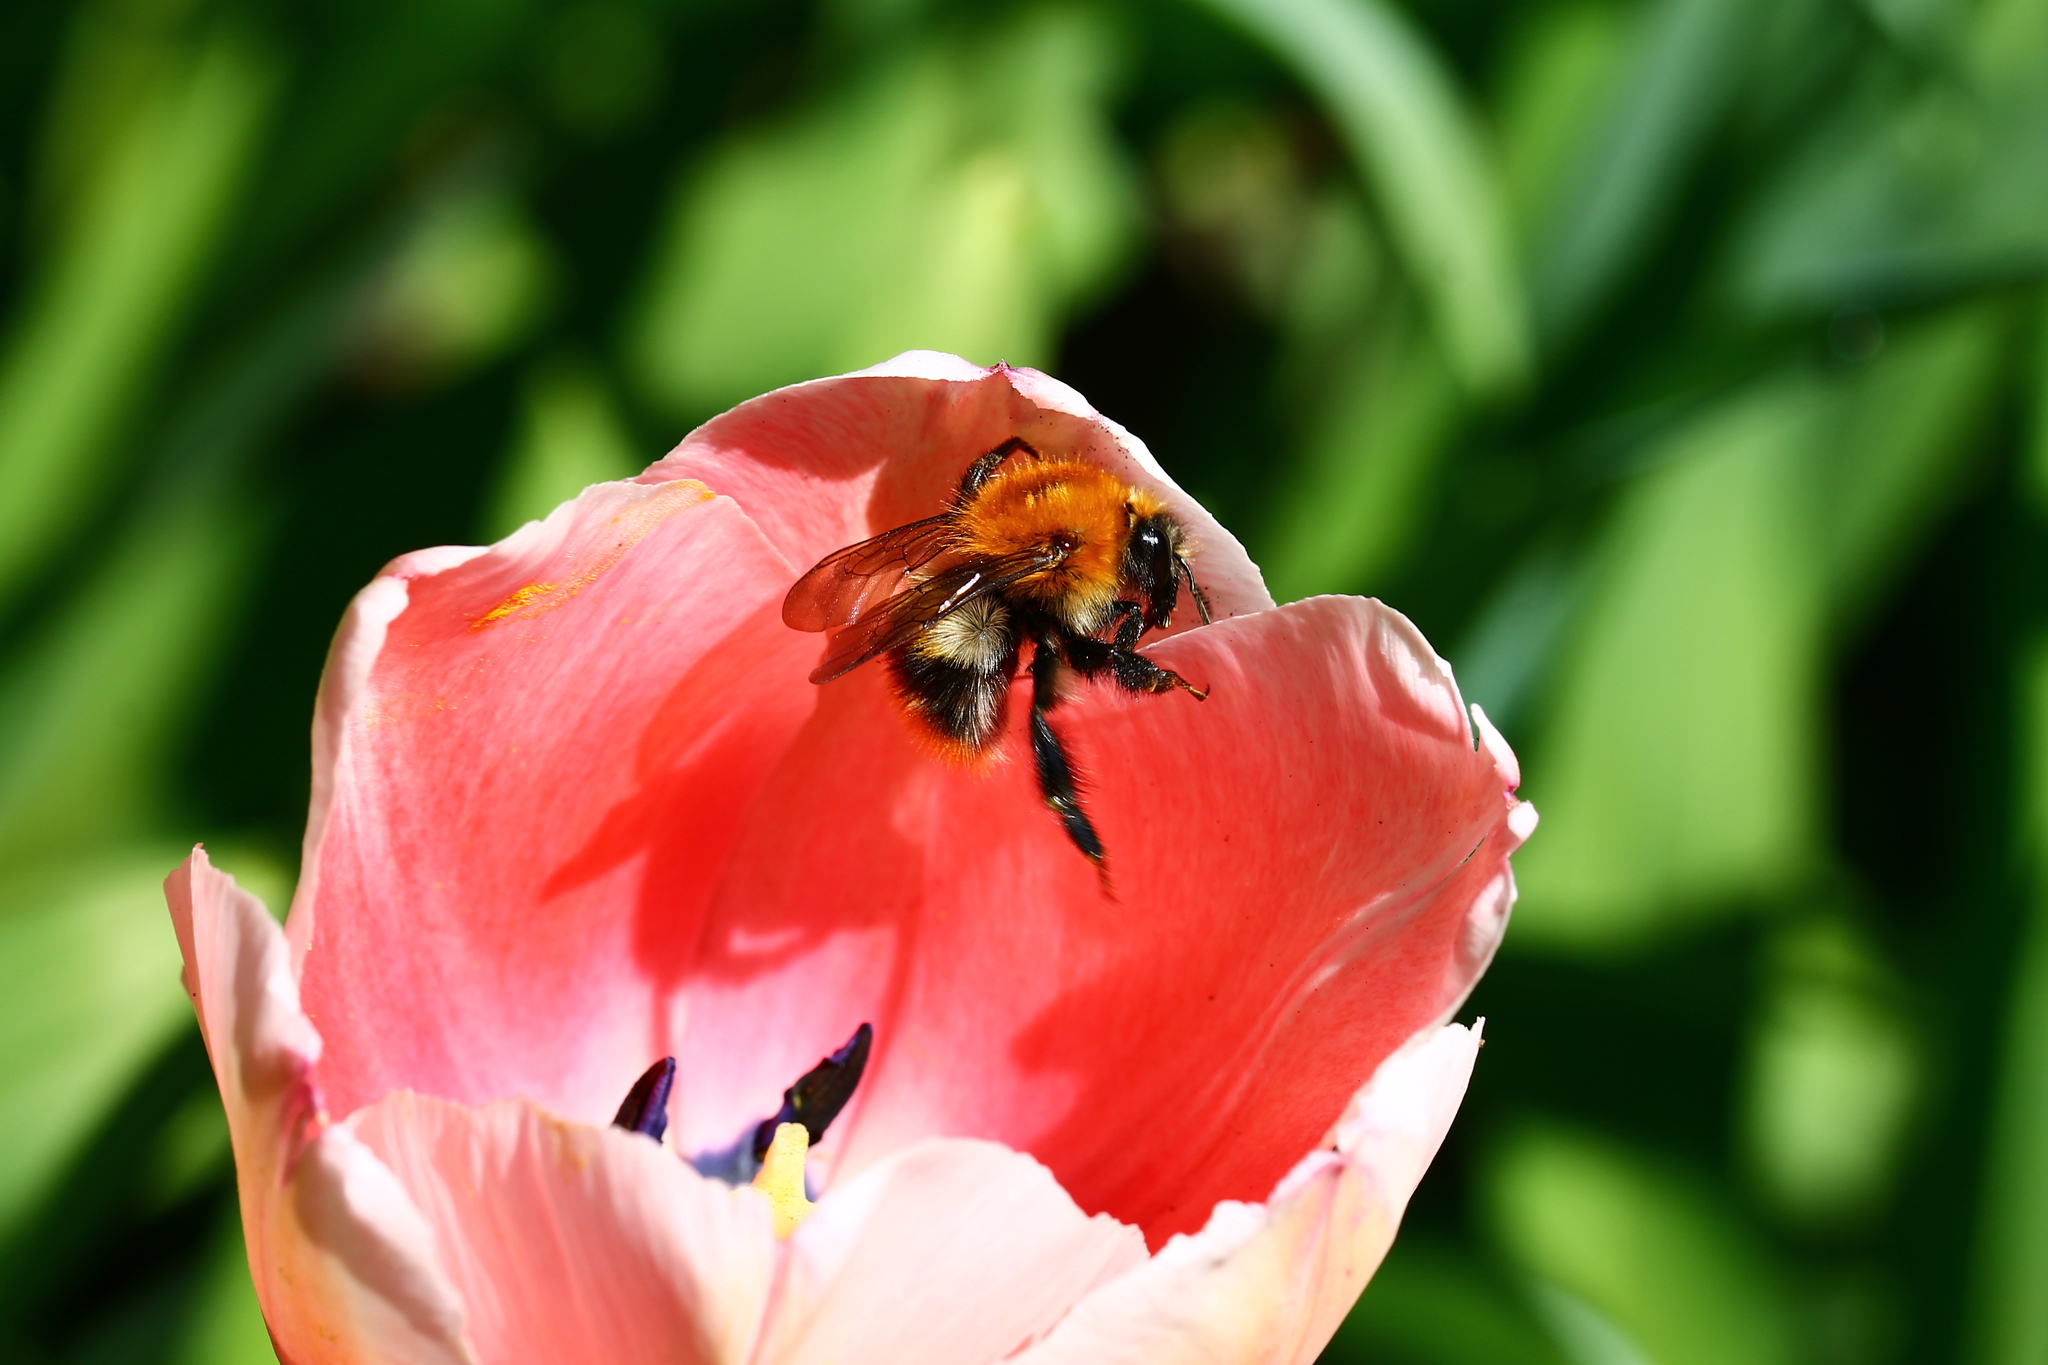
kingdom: Animalia
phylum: Arthropoda
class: Insecta
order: Hymenoptera
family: Apidae
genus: Bombus
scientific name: Bombus pascuorum
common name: Common carder bee
